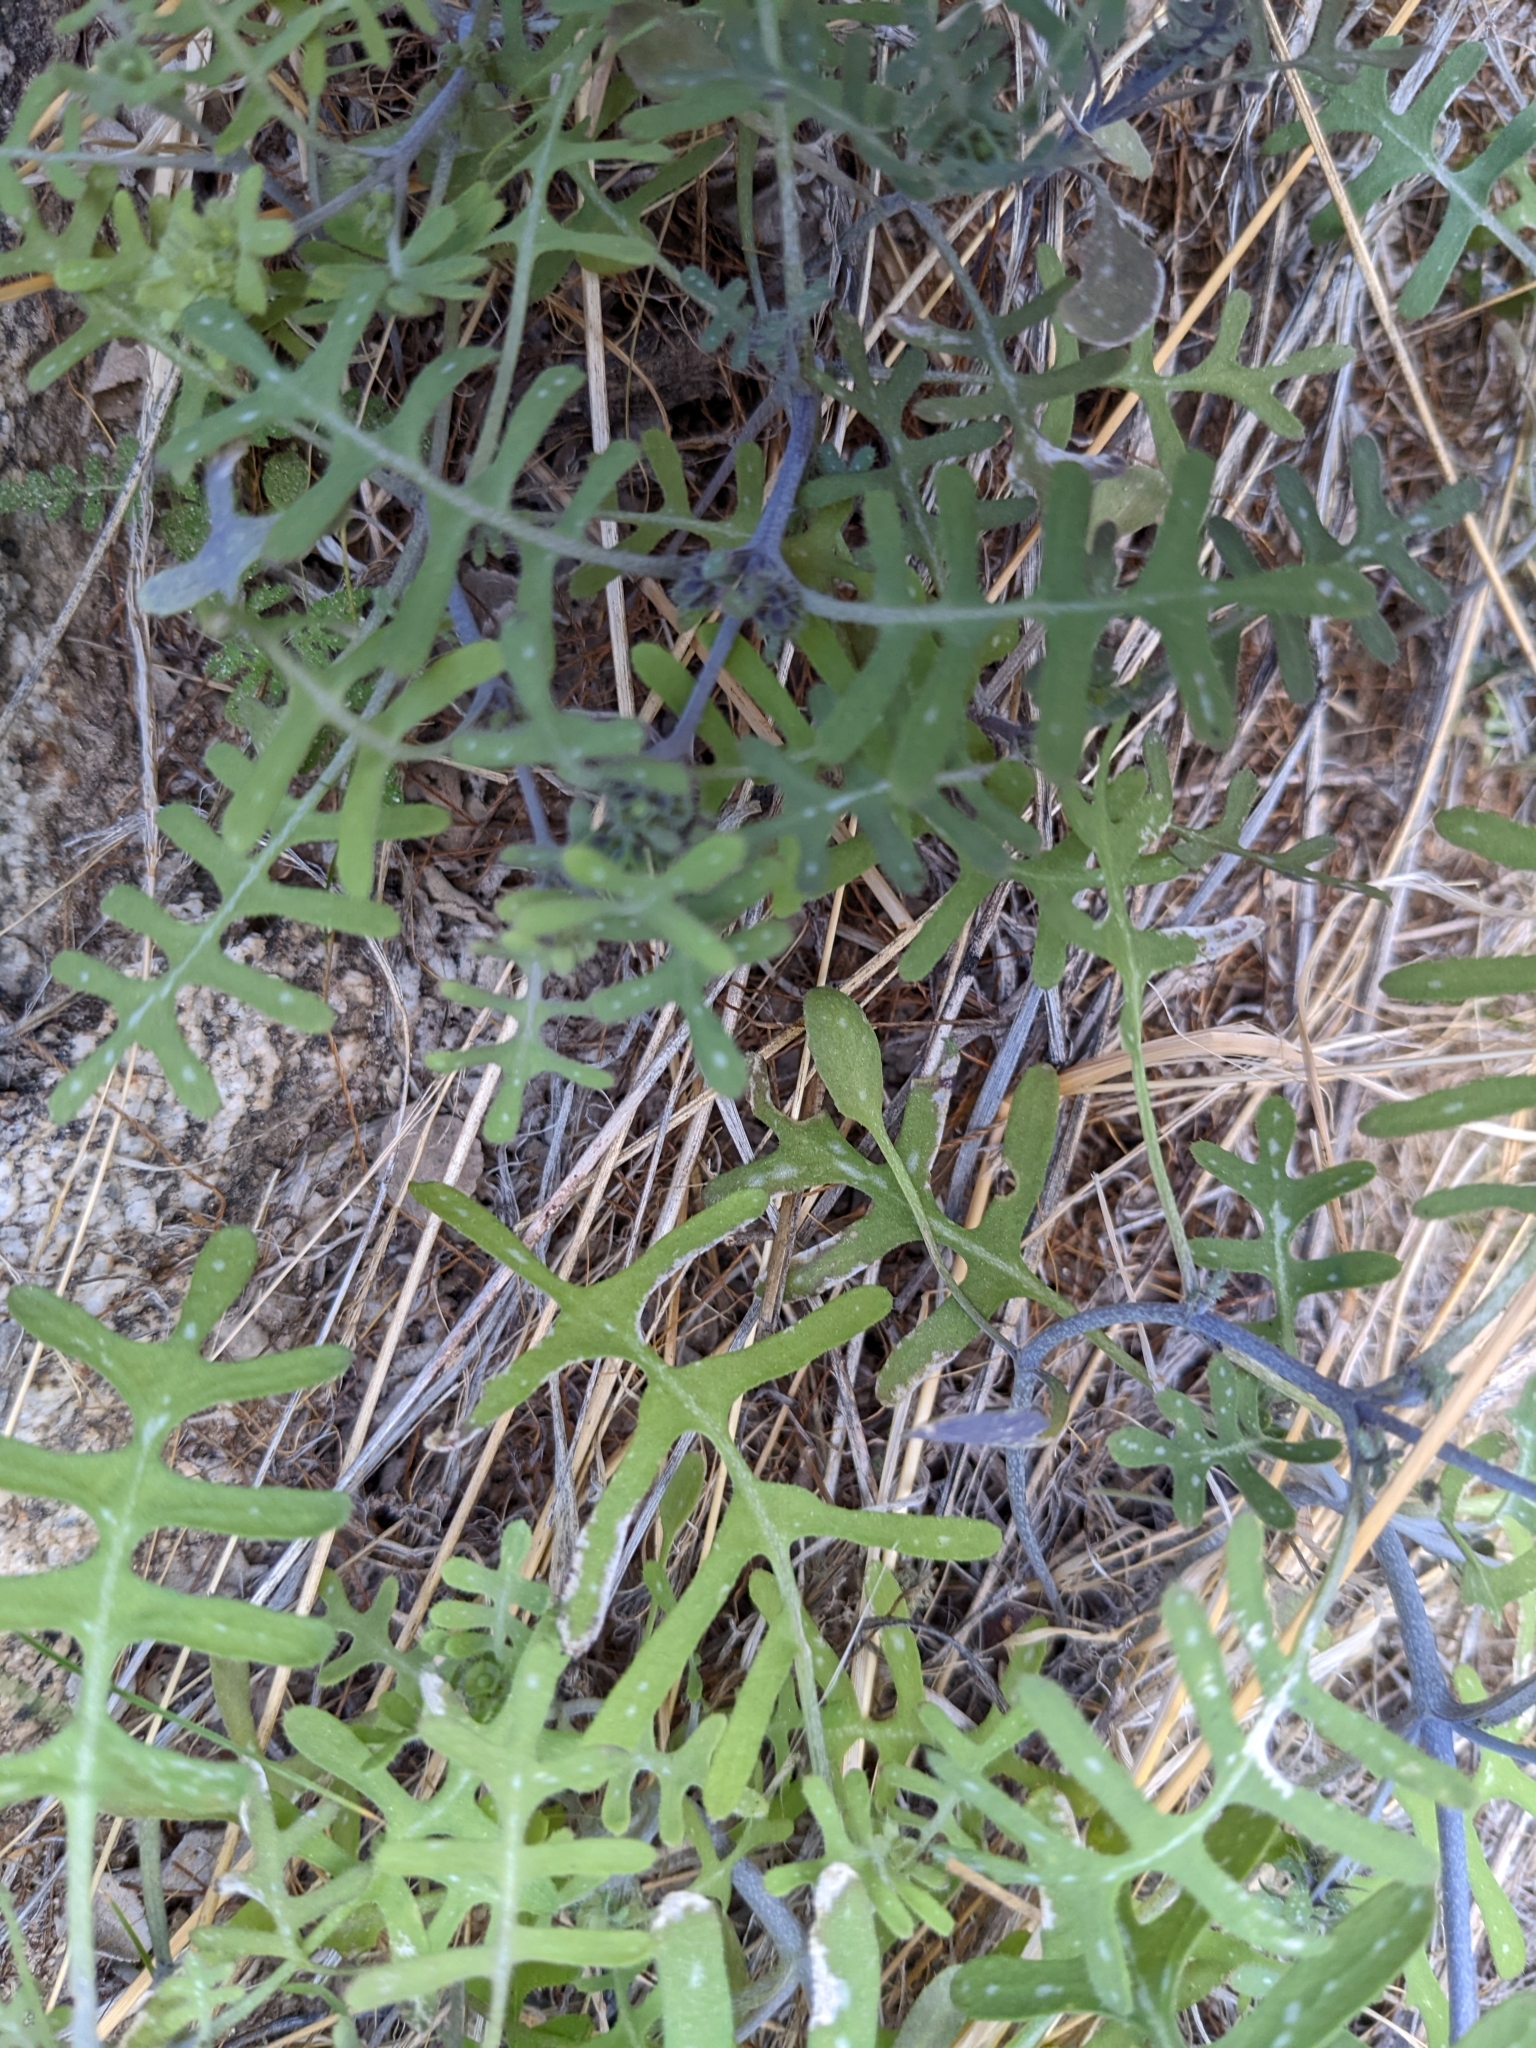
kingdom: Plantae
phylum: Tracheophyta
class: Magnoliopsida
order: Boraginales
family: Hydrophyllaceae
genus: Pholistoma
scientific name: Pholistoma membranaceum
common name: White fiesta-flower
